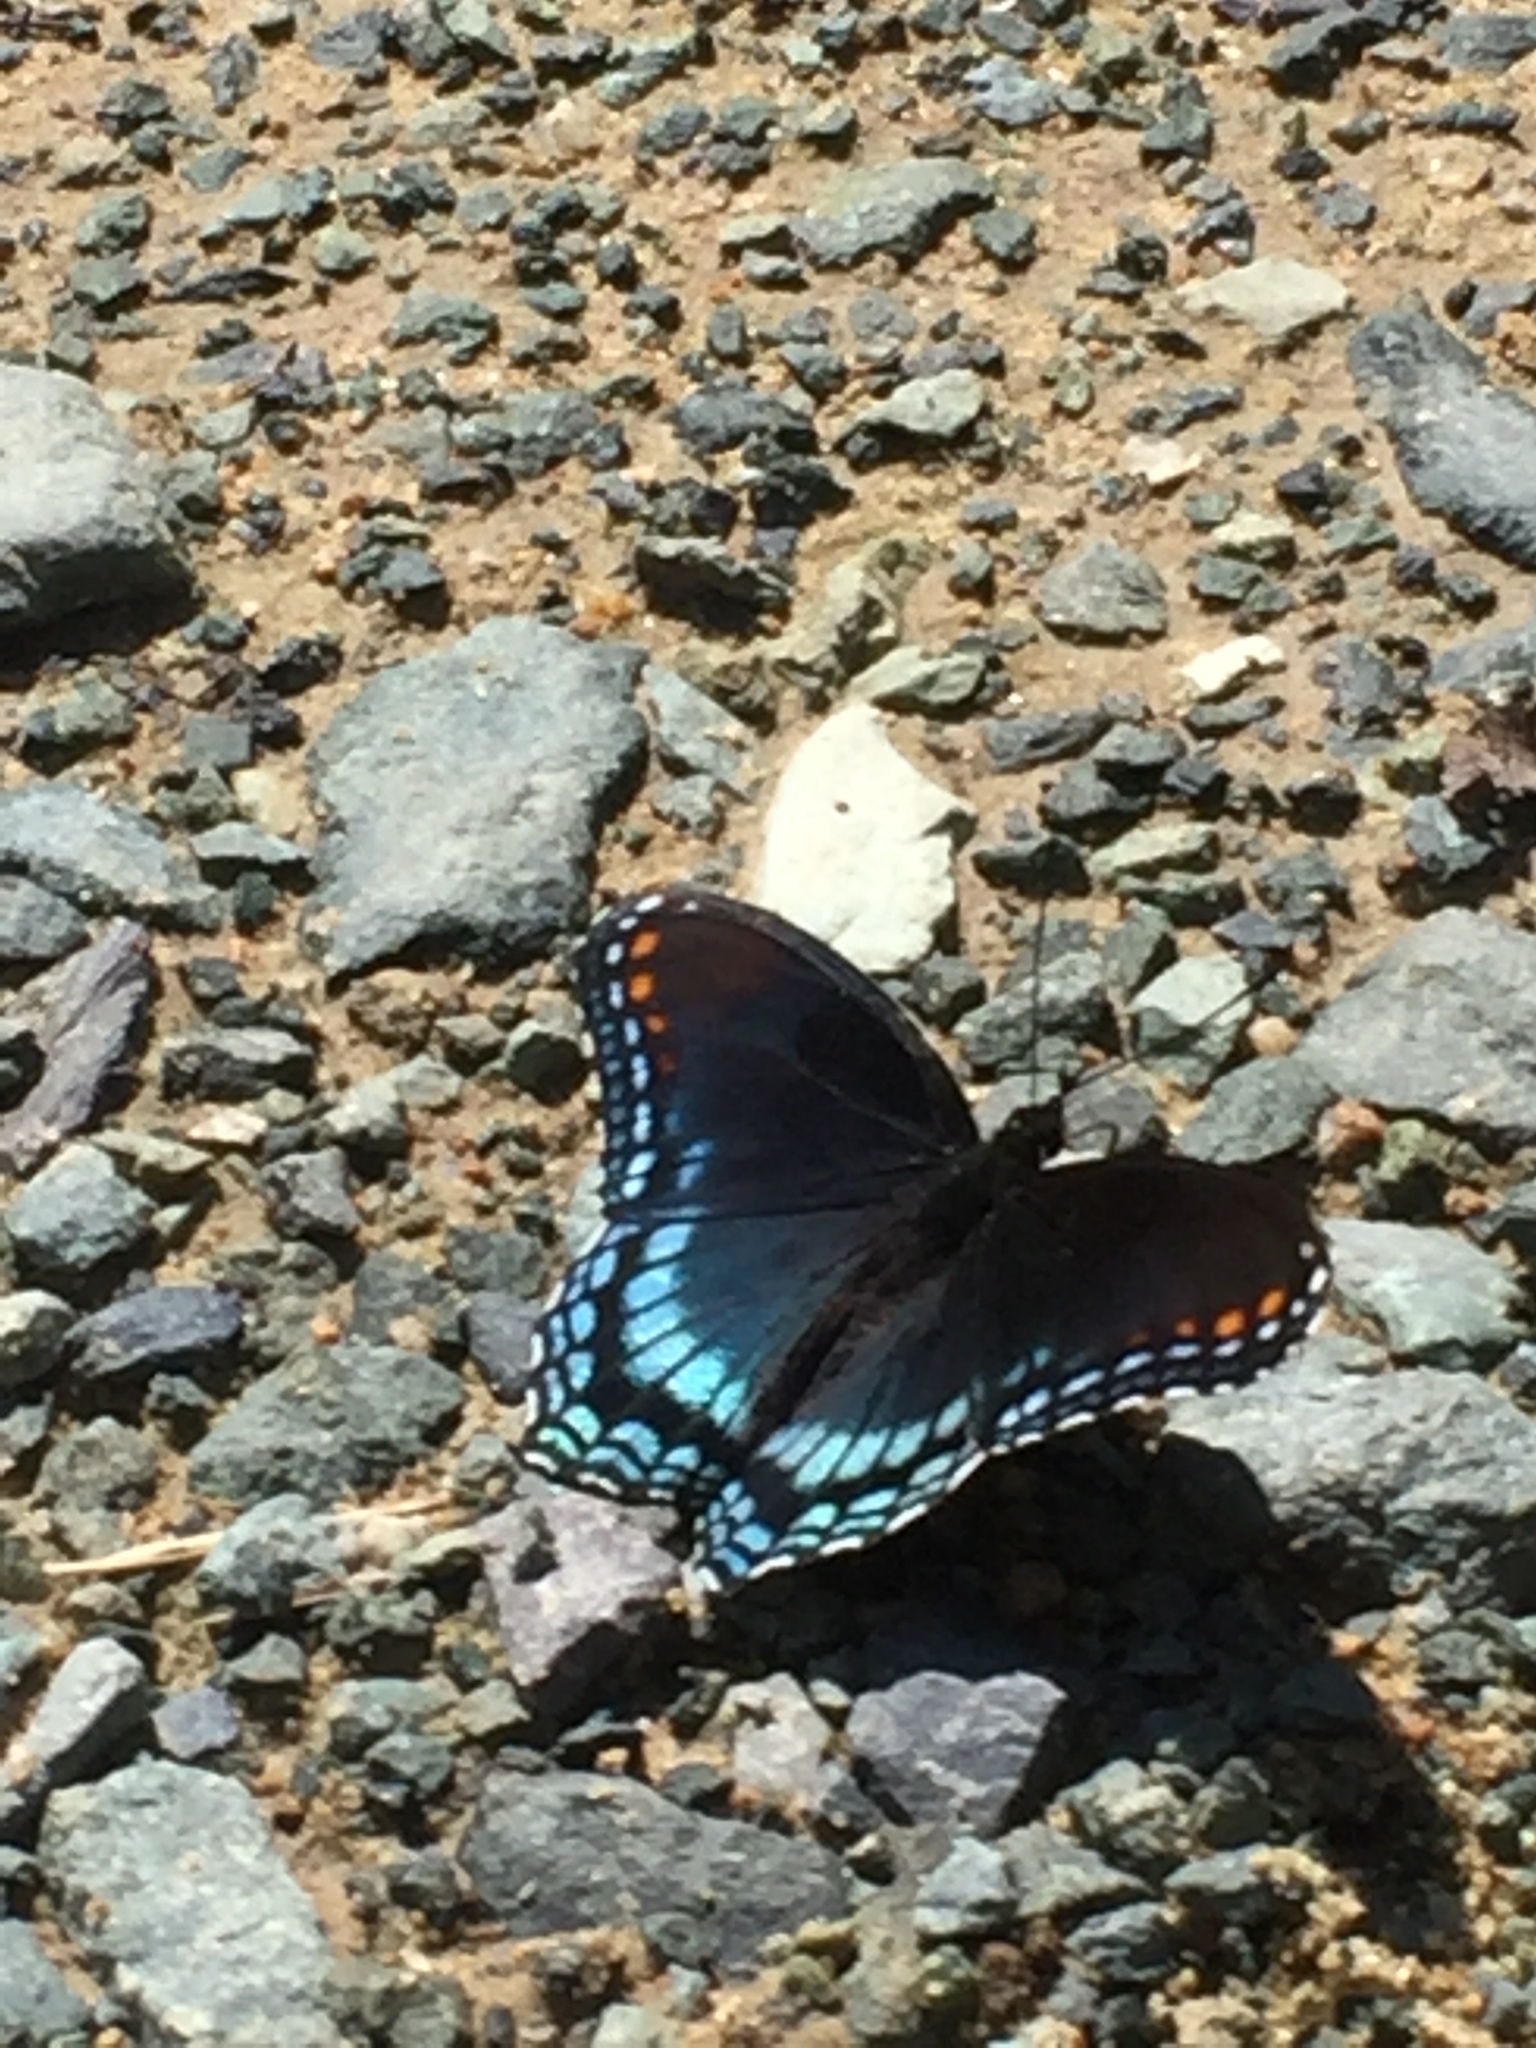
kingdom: Animalia
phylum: Arthropoda
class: Insecta
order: Lepidoptera
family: Nymphalidae
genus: Limenitis
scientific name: Limenitis astyanax
